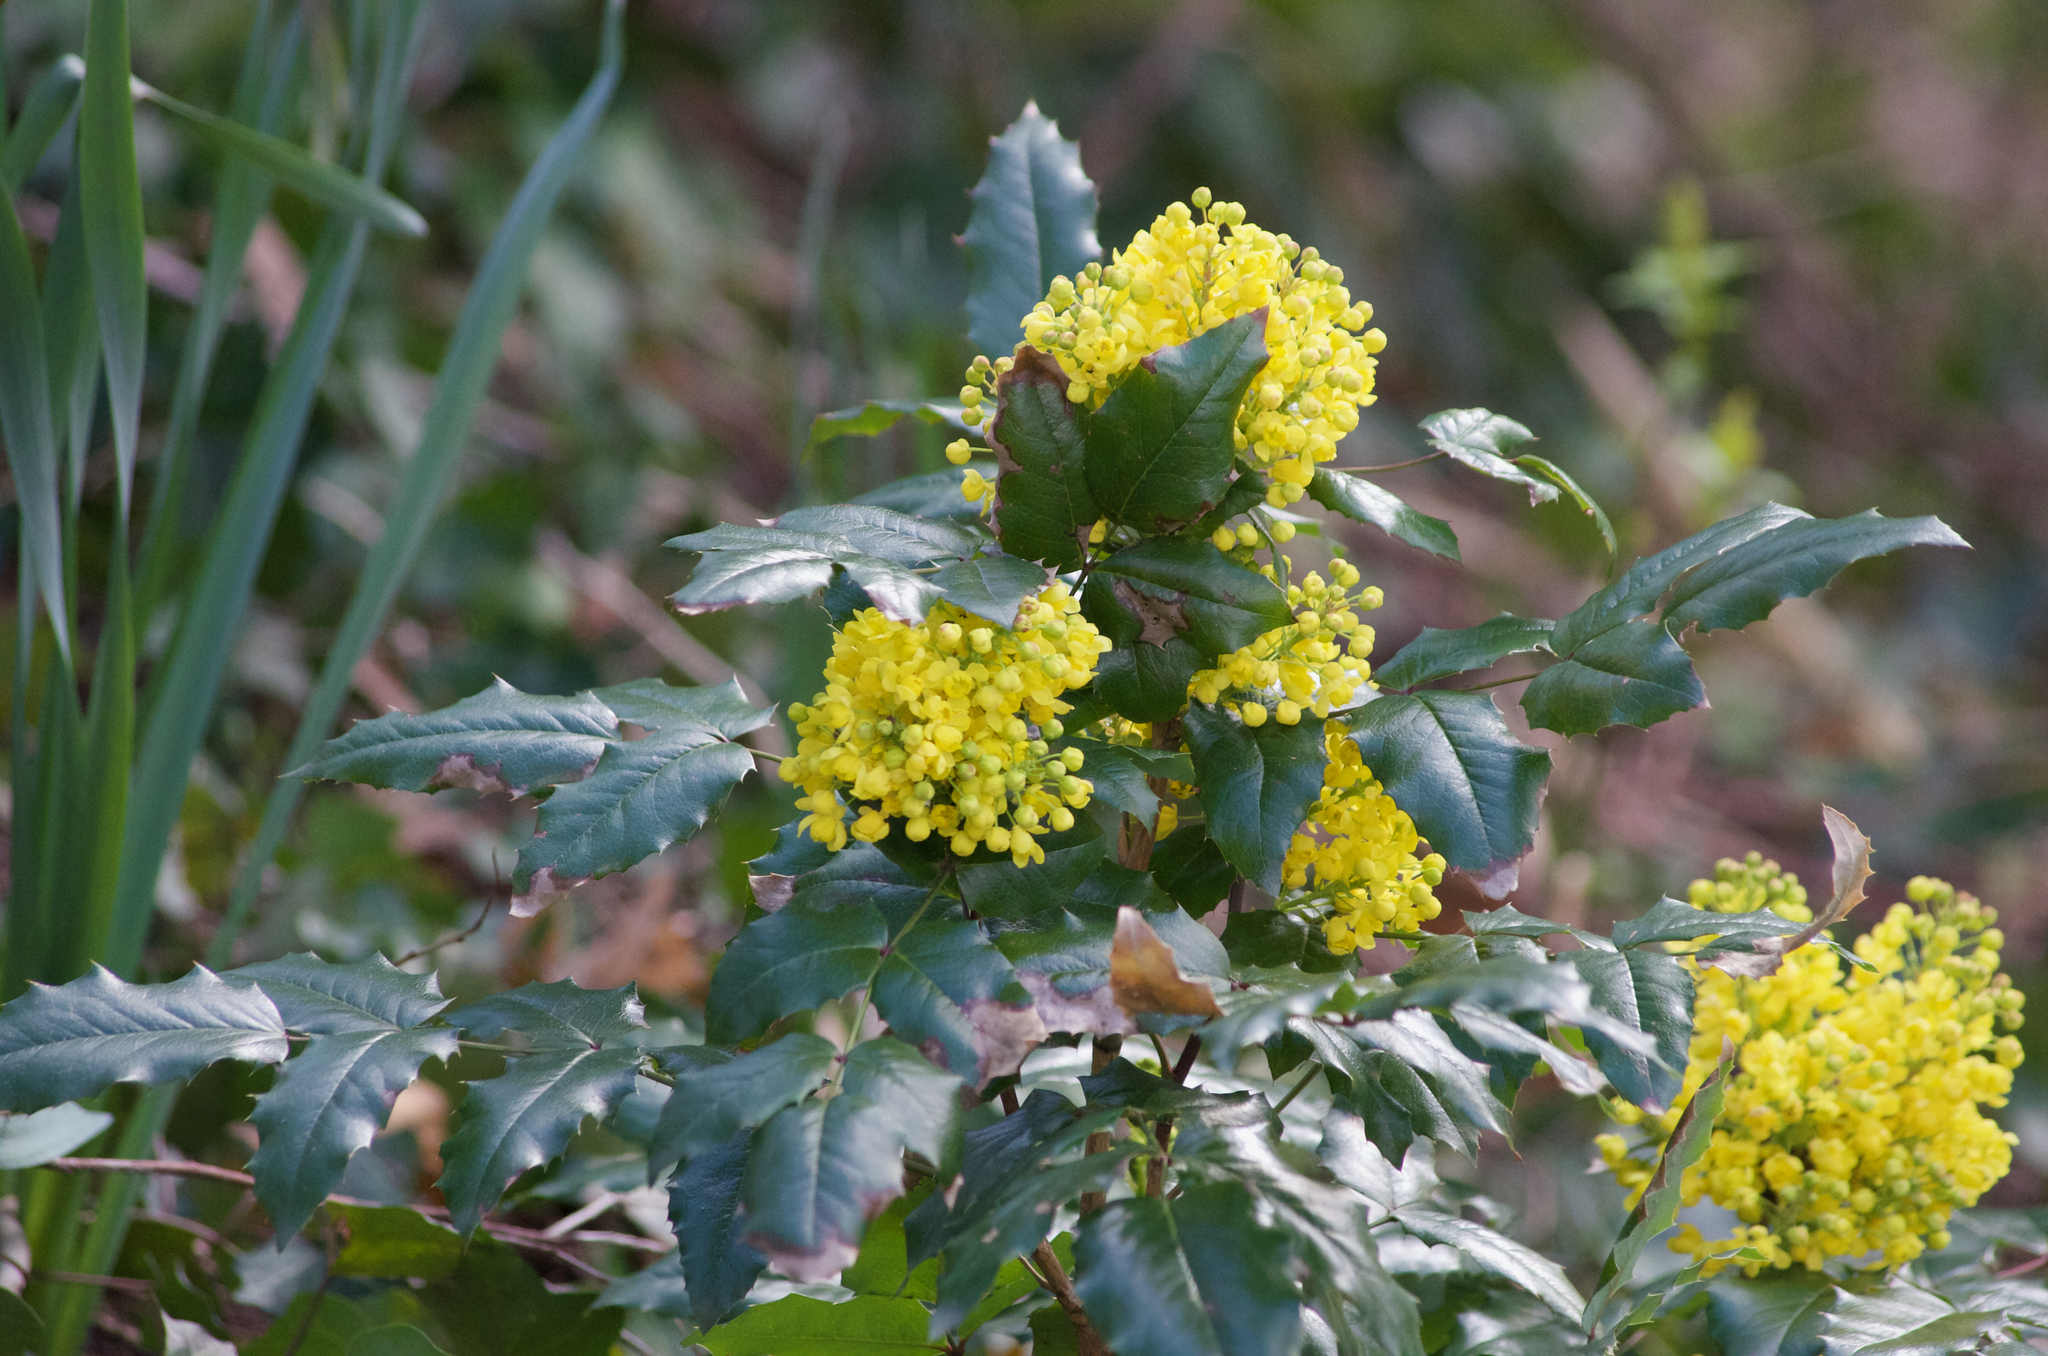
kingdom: Plantae
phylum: Tracheophyta
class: Magnoliopsida
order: Ranunculales
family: Berberidaceae
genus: Mahonia
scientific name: Mahonia aquifolium
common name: Oregon-grape
